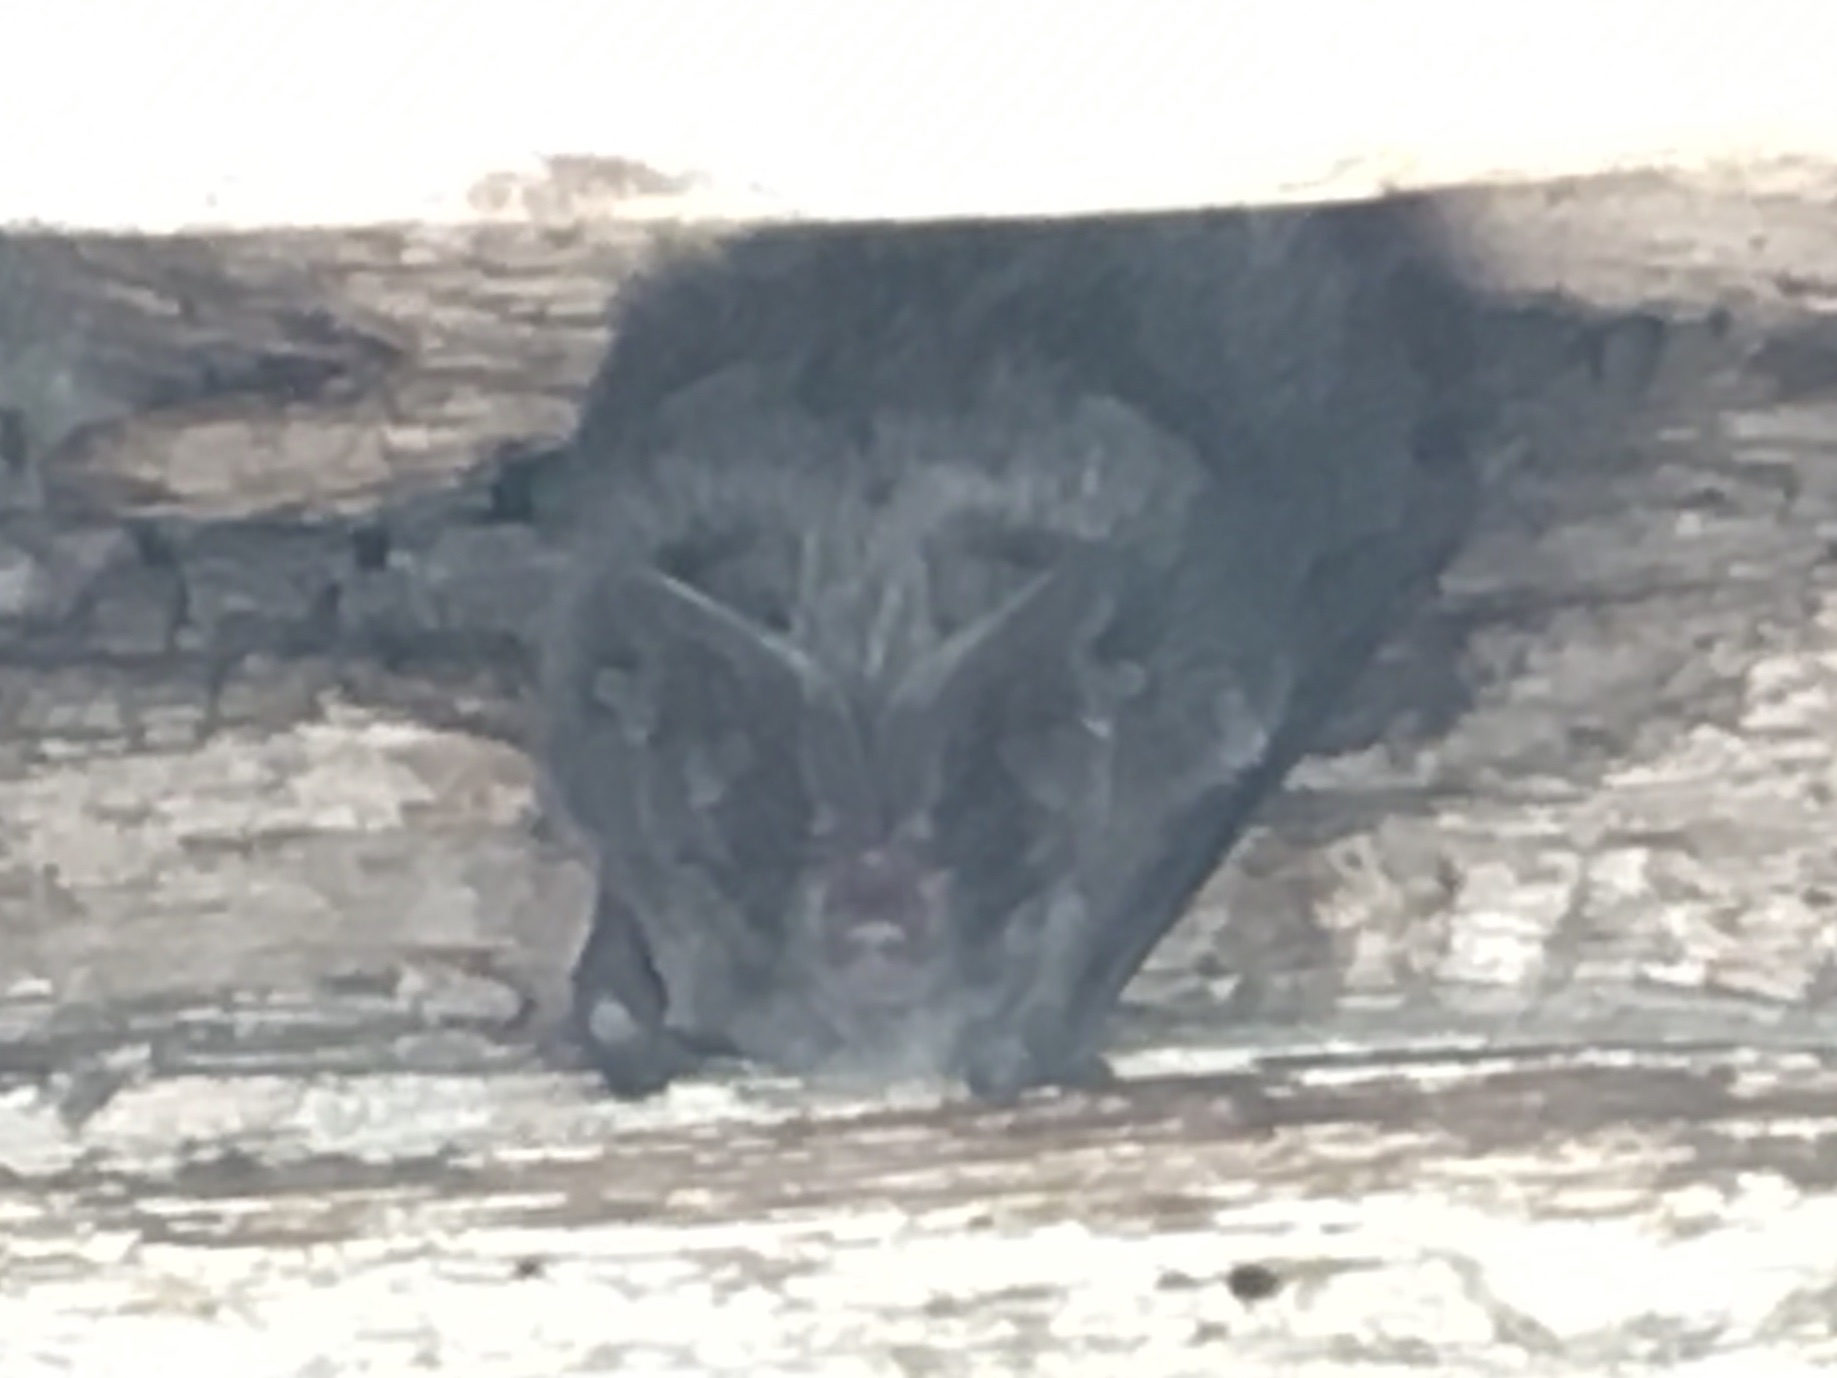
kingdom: Animalia
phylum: Chordata
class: Mammalia
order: Chiroptera
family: Vespertilionidae
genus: Barbastella
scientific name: Barbastella barbastellus
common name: Western barbastelle
